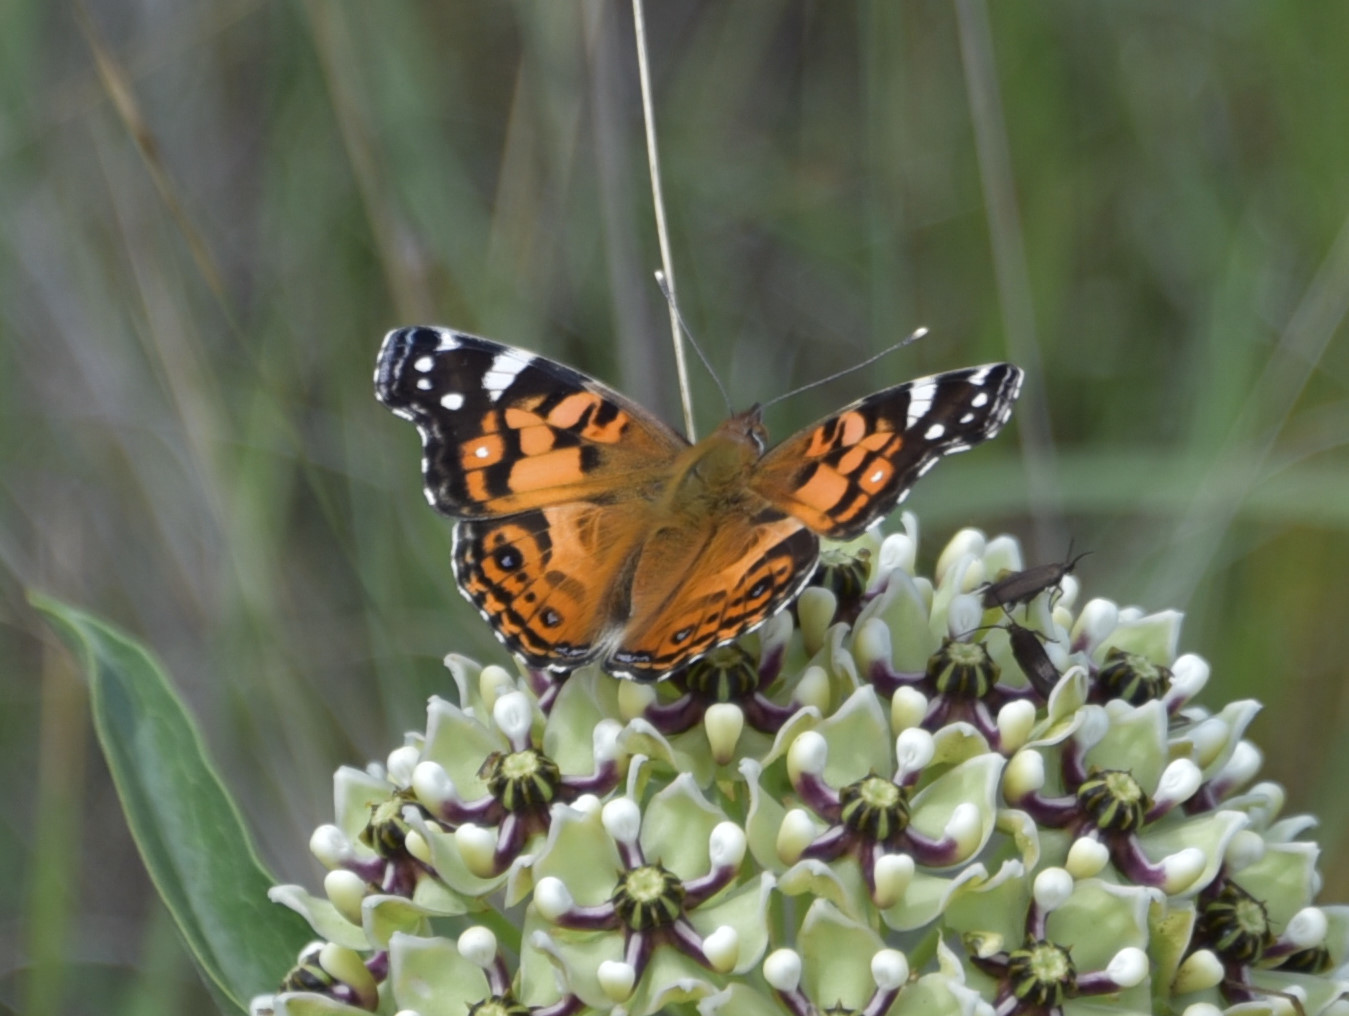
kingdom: Animalia
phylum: Arthropoda
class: Insecta
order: Lepidoptera
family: Nymphalidae
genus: Vanessa
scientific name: Vanessa virginiensis
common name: American lady
